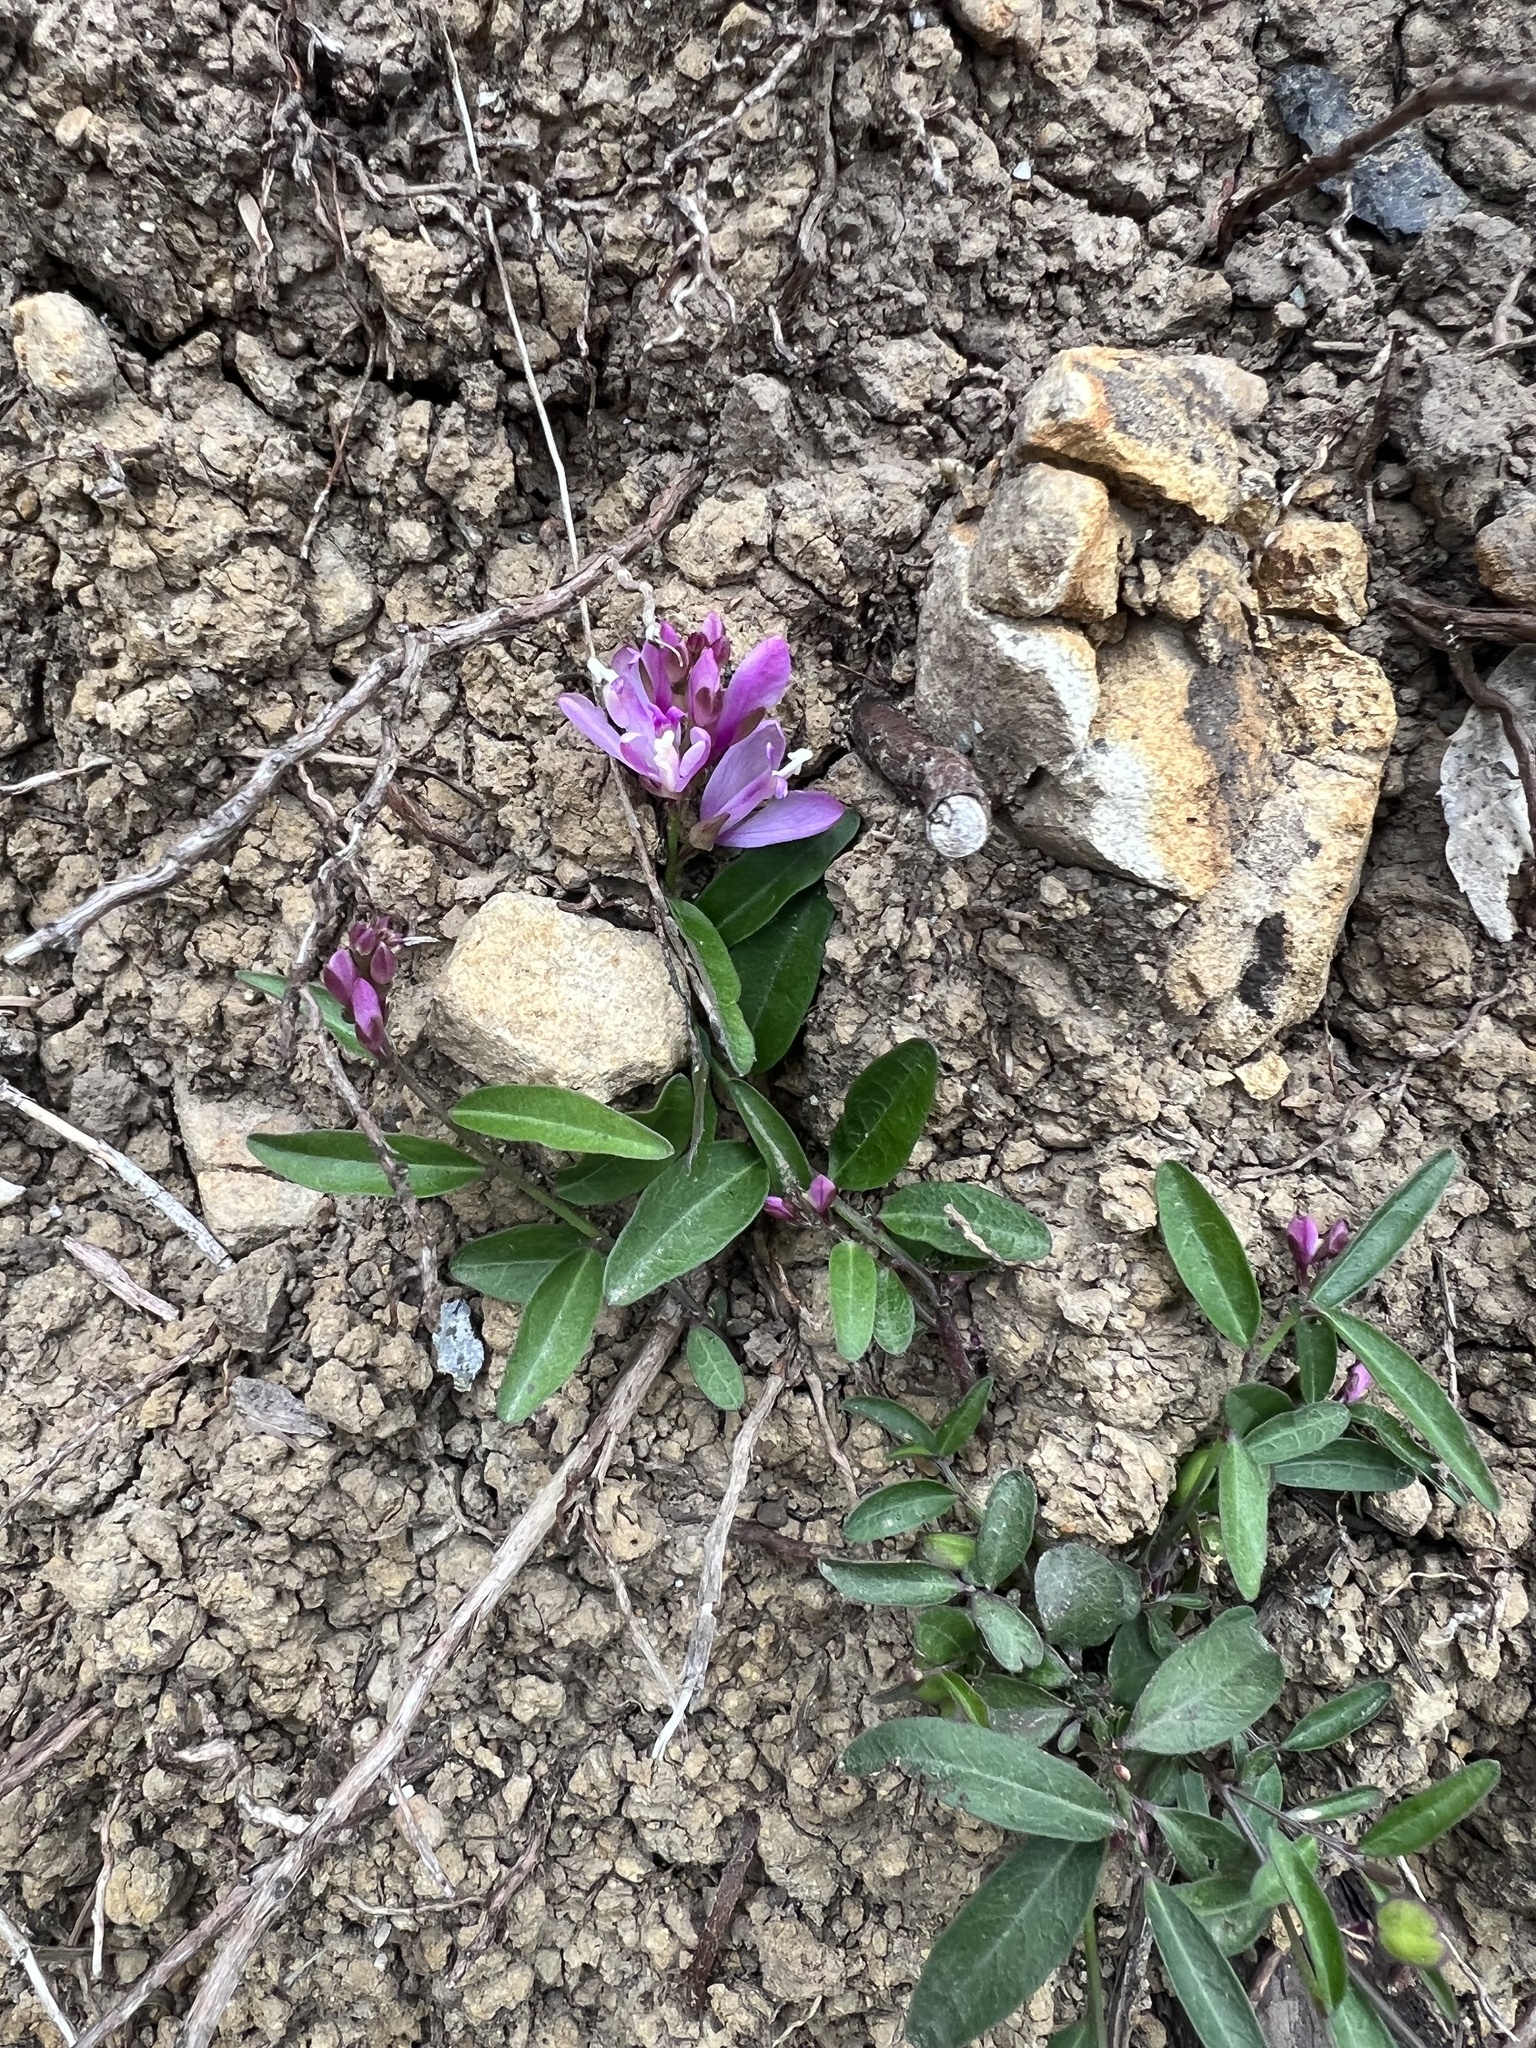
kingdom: Plantae
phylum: Tracheophyta
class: Magnoliopsida
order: Fabales
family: Polygalaceae
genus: Rhinotropis
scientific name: Rhinotropis californica
